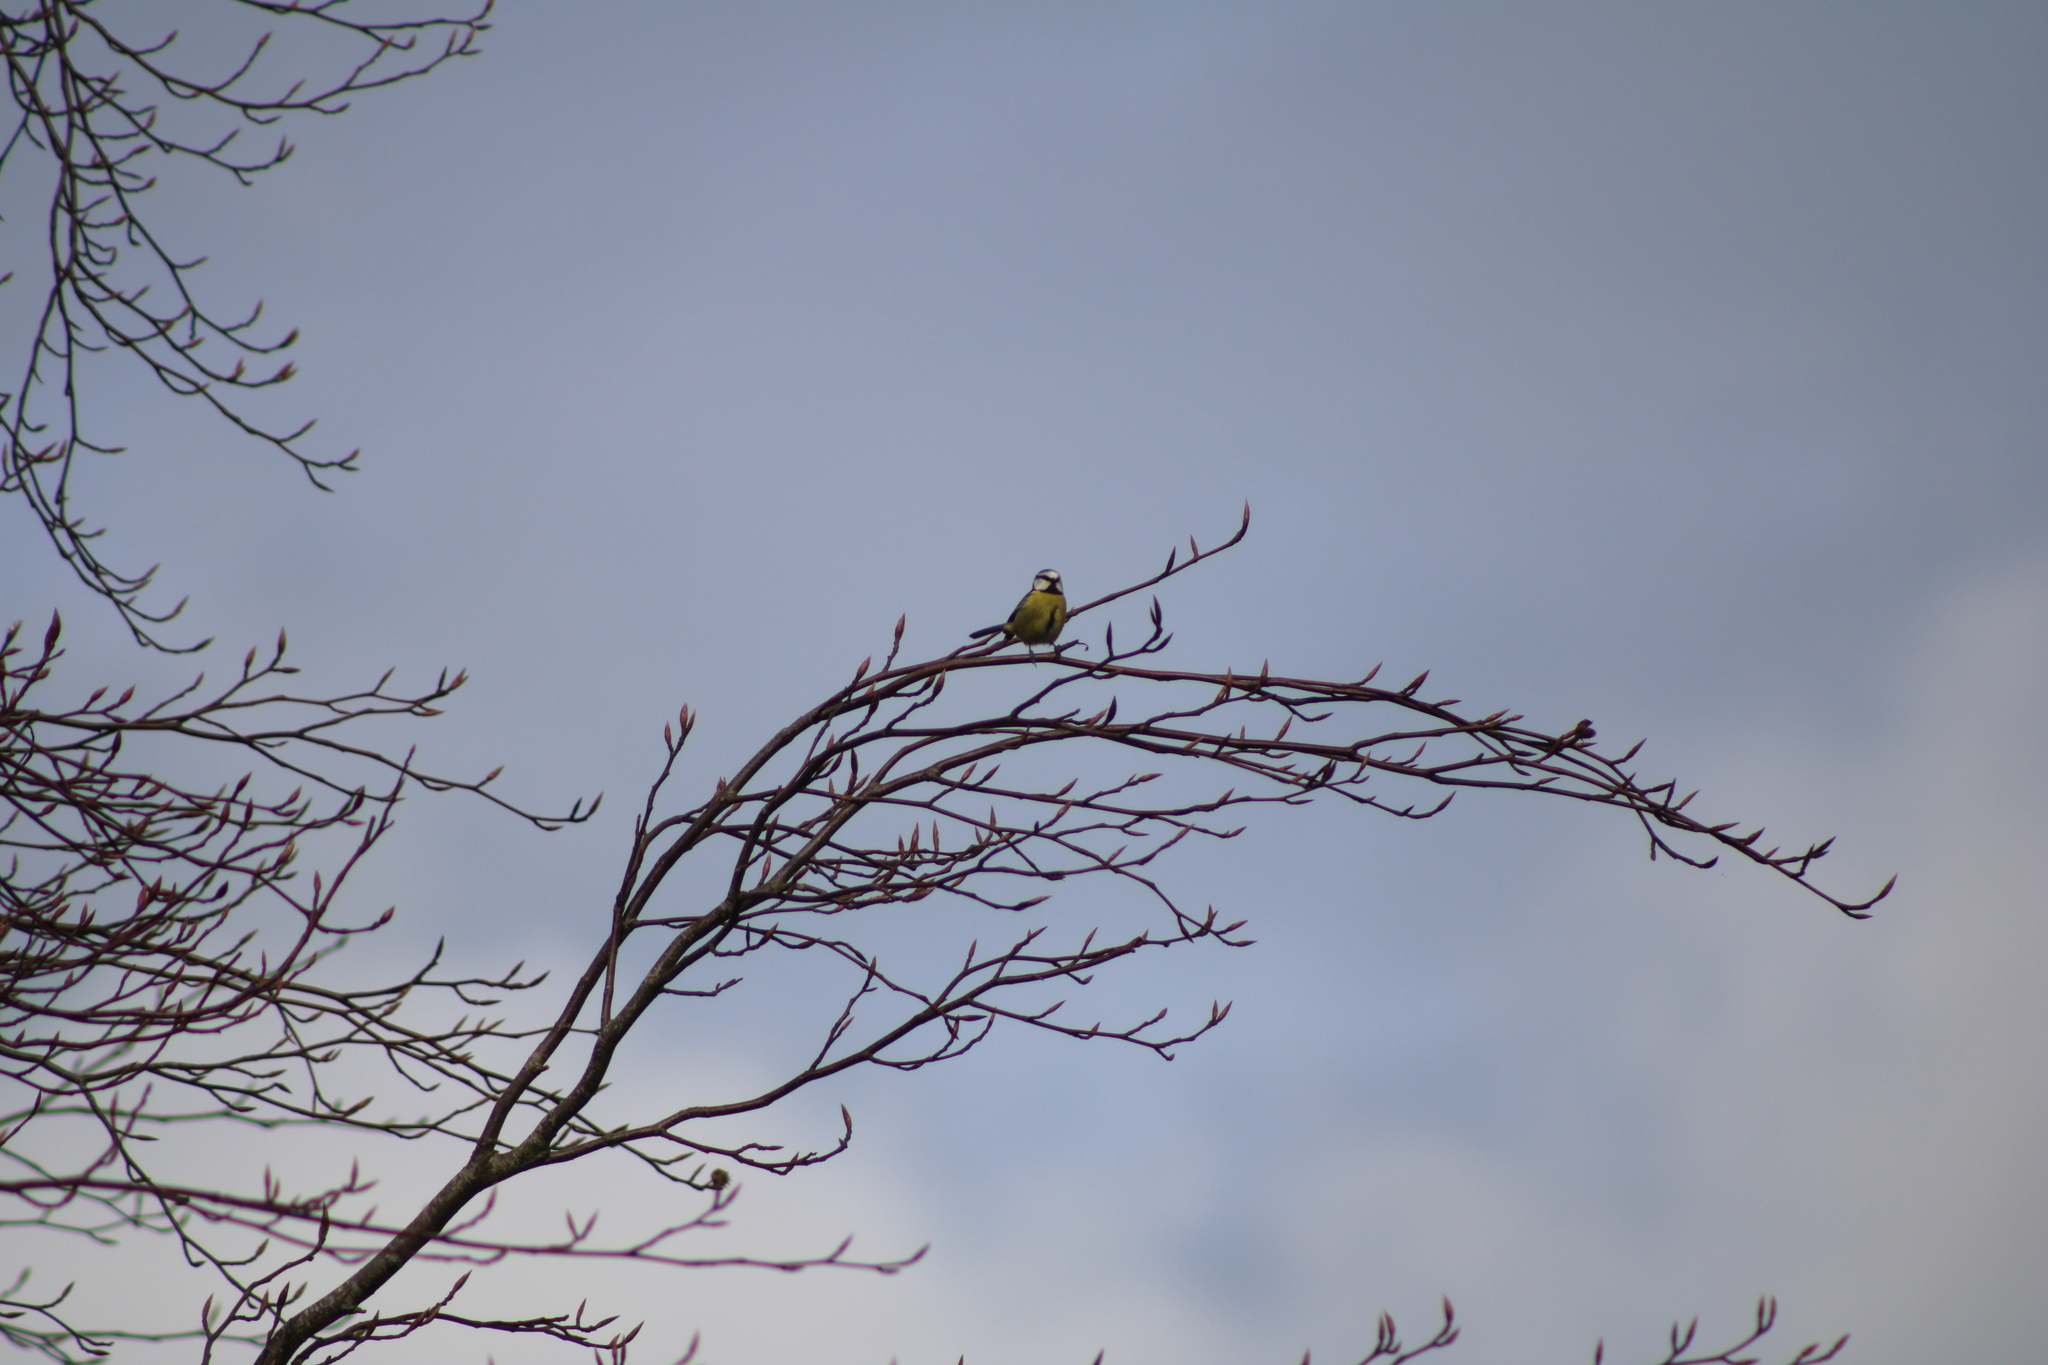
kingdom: Animalia
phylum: Chordata
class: Aves
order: Passeriformes
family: Paridae
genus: Cyanistes
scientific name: Cyanistes caeruleus
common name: Eurasian blue tit
